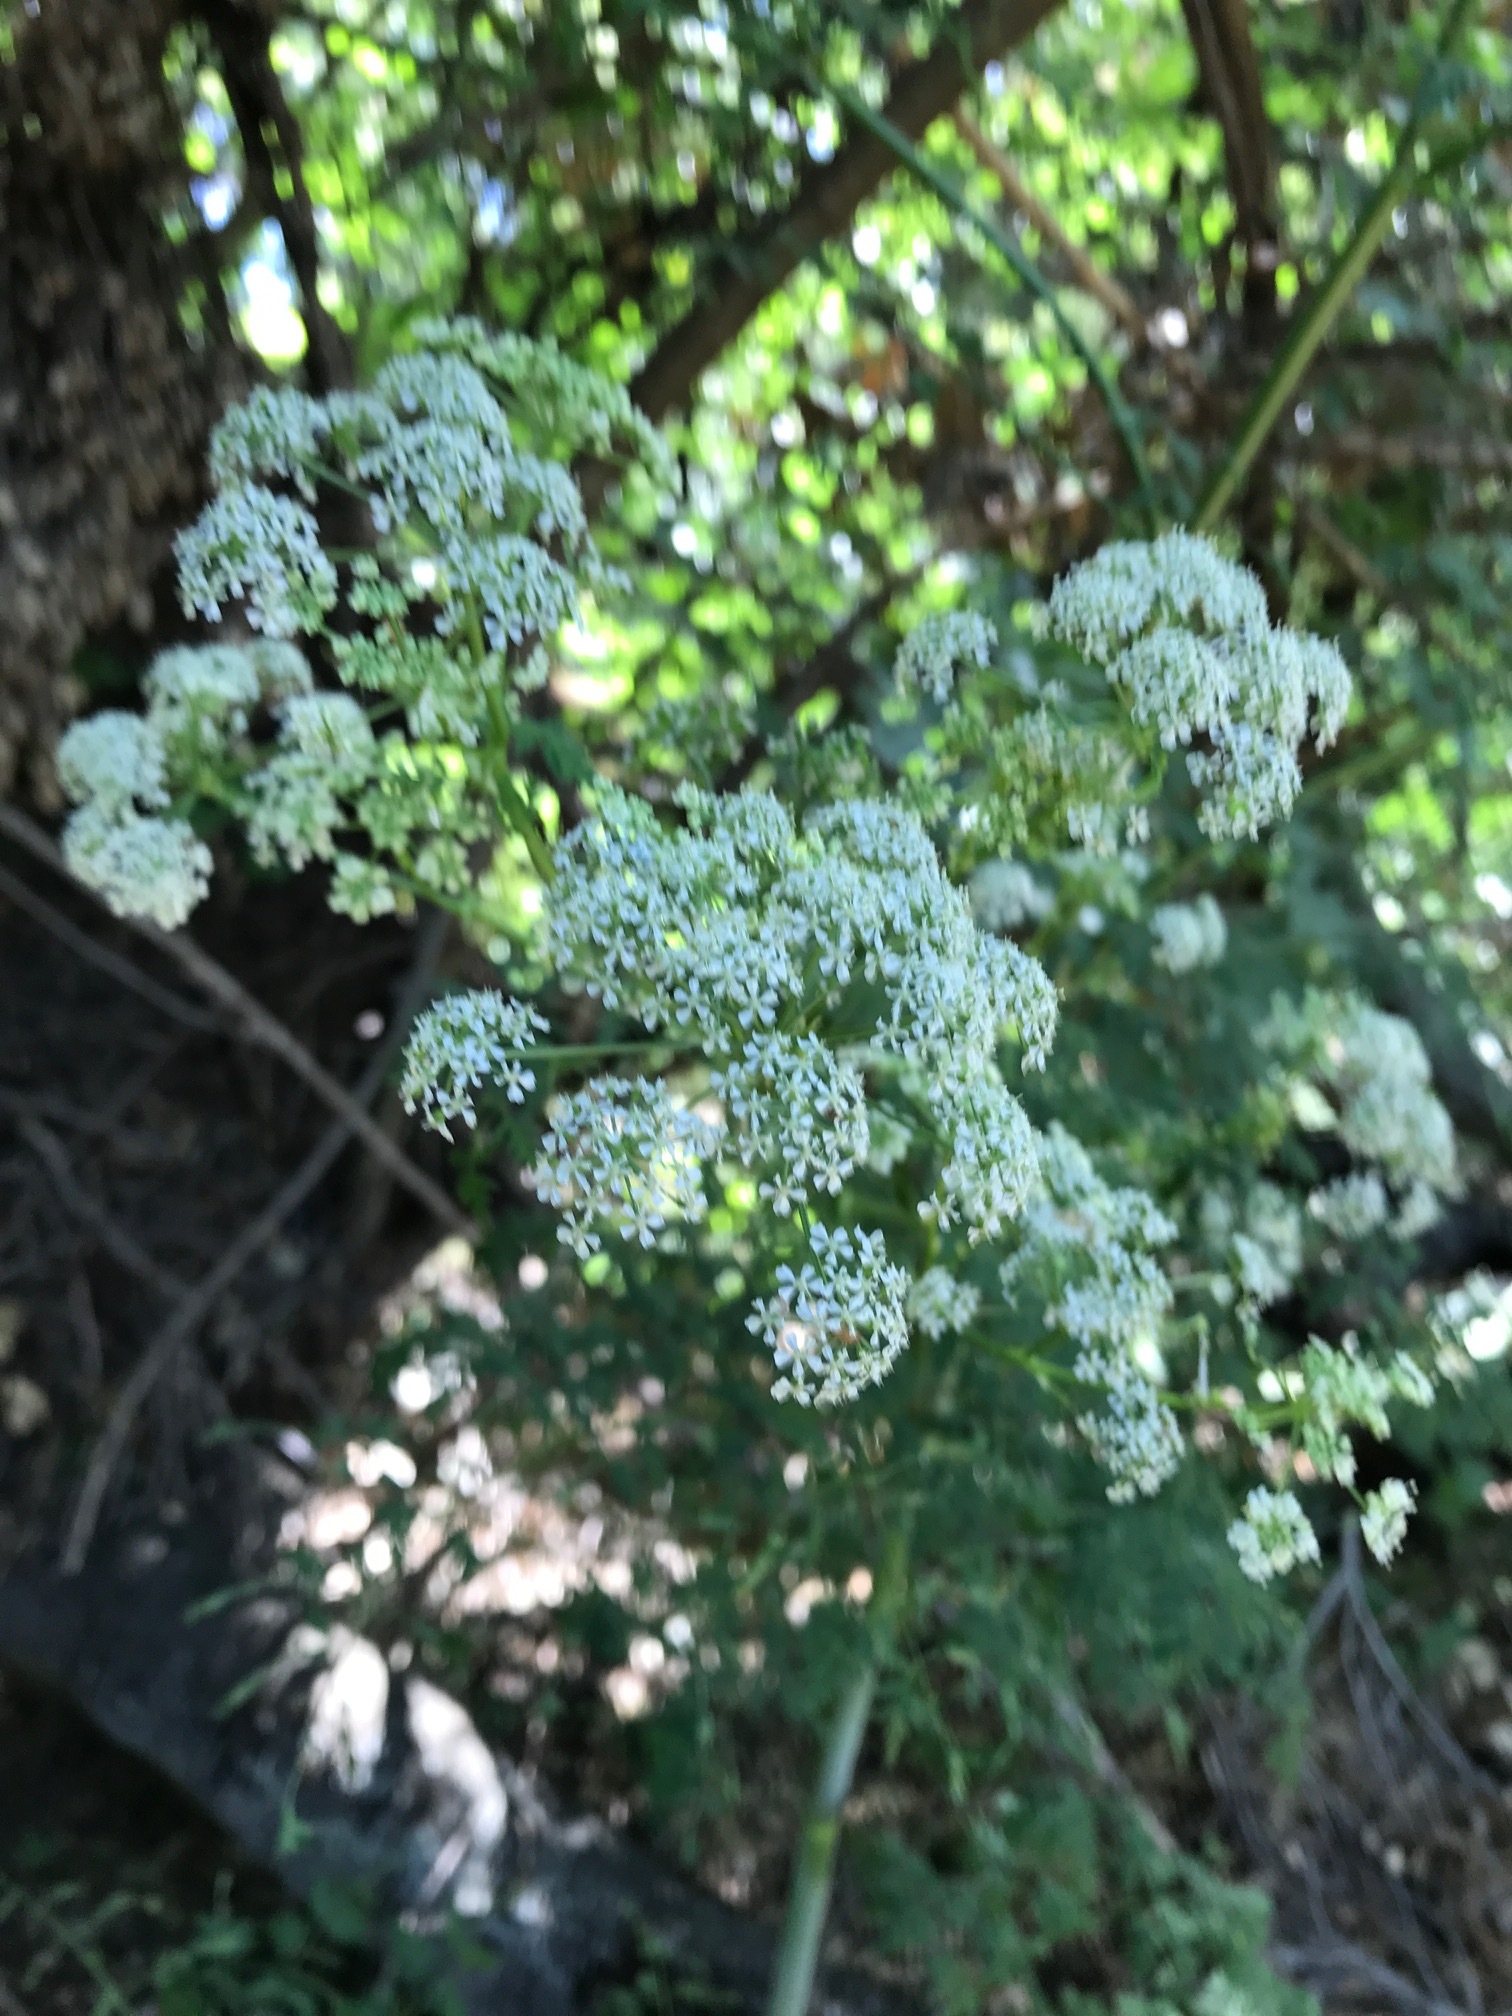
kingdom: Plantae
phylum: Tracheophyta
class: Magnoliopsida
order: Apiales
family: Apiaceae
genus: Conium
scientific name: Conium maculatum
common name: Hemlock
